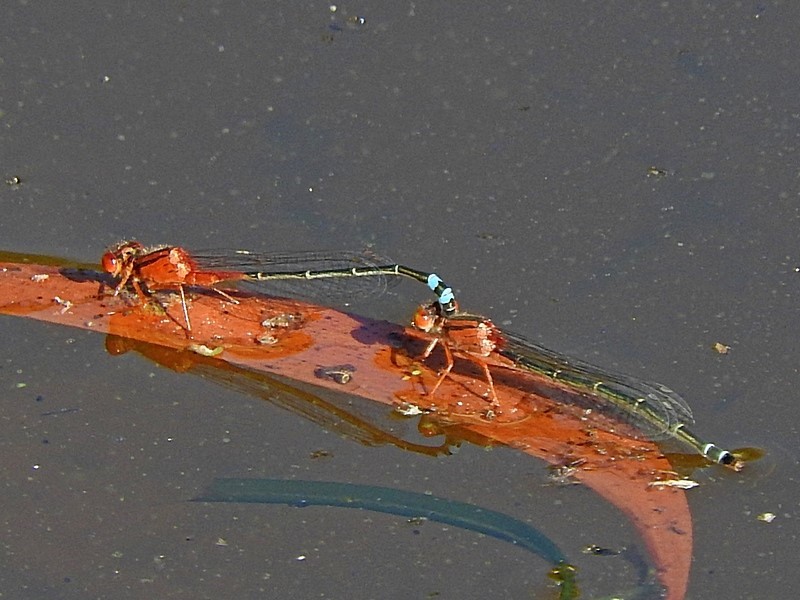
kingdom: Animalia
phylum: Arthropoda
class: Insecta
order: Odonata
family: Coenagrionidae
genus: Xanthagrion
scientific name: Xanthagrion erythroneurum
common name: Red and blue damsel
